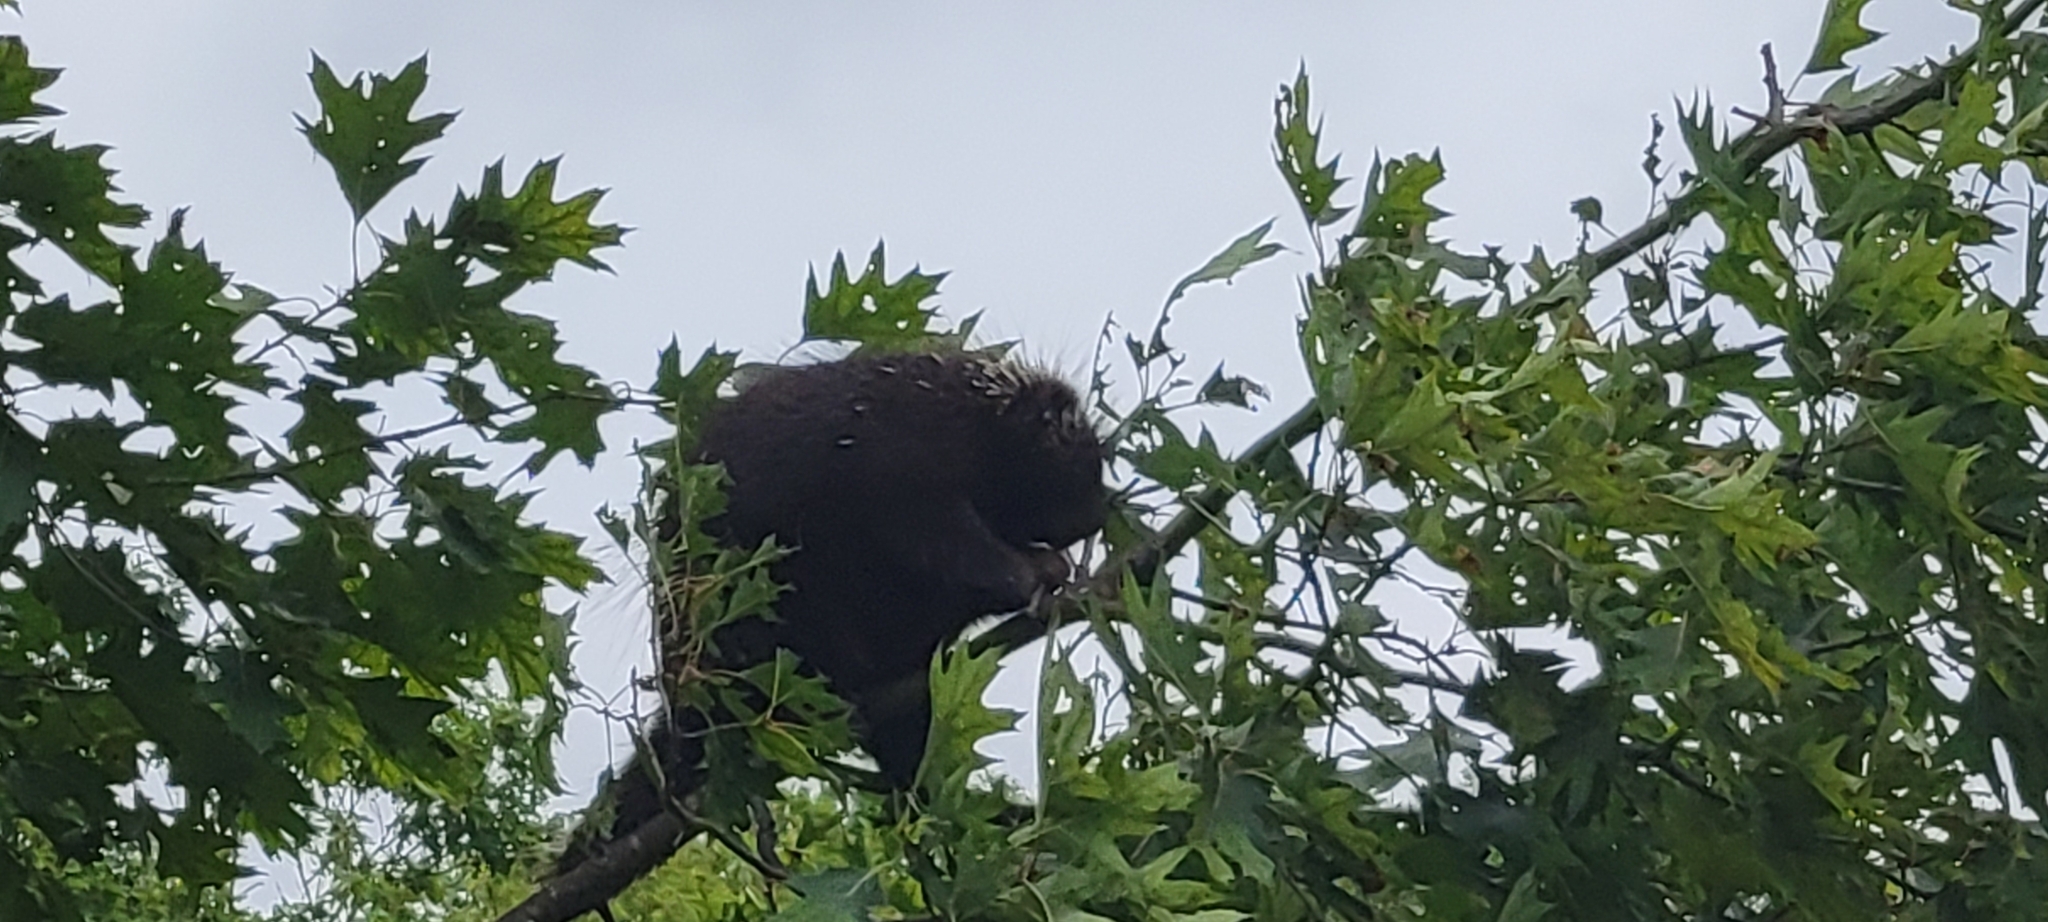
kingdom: Animalia
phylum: Chordata
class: Mammalia
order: Rodentia
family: Erethizontidae
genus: Erethizon
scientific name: Erethizon dorsatus
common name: North american porcupine
